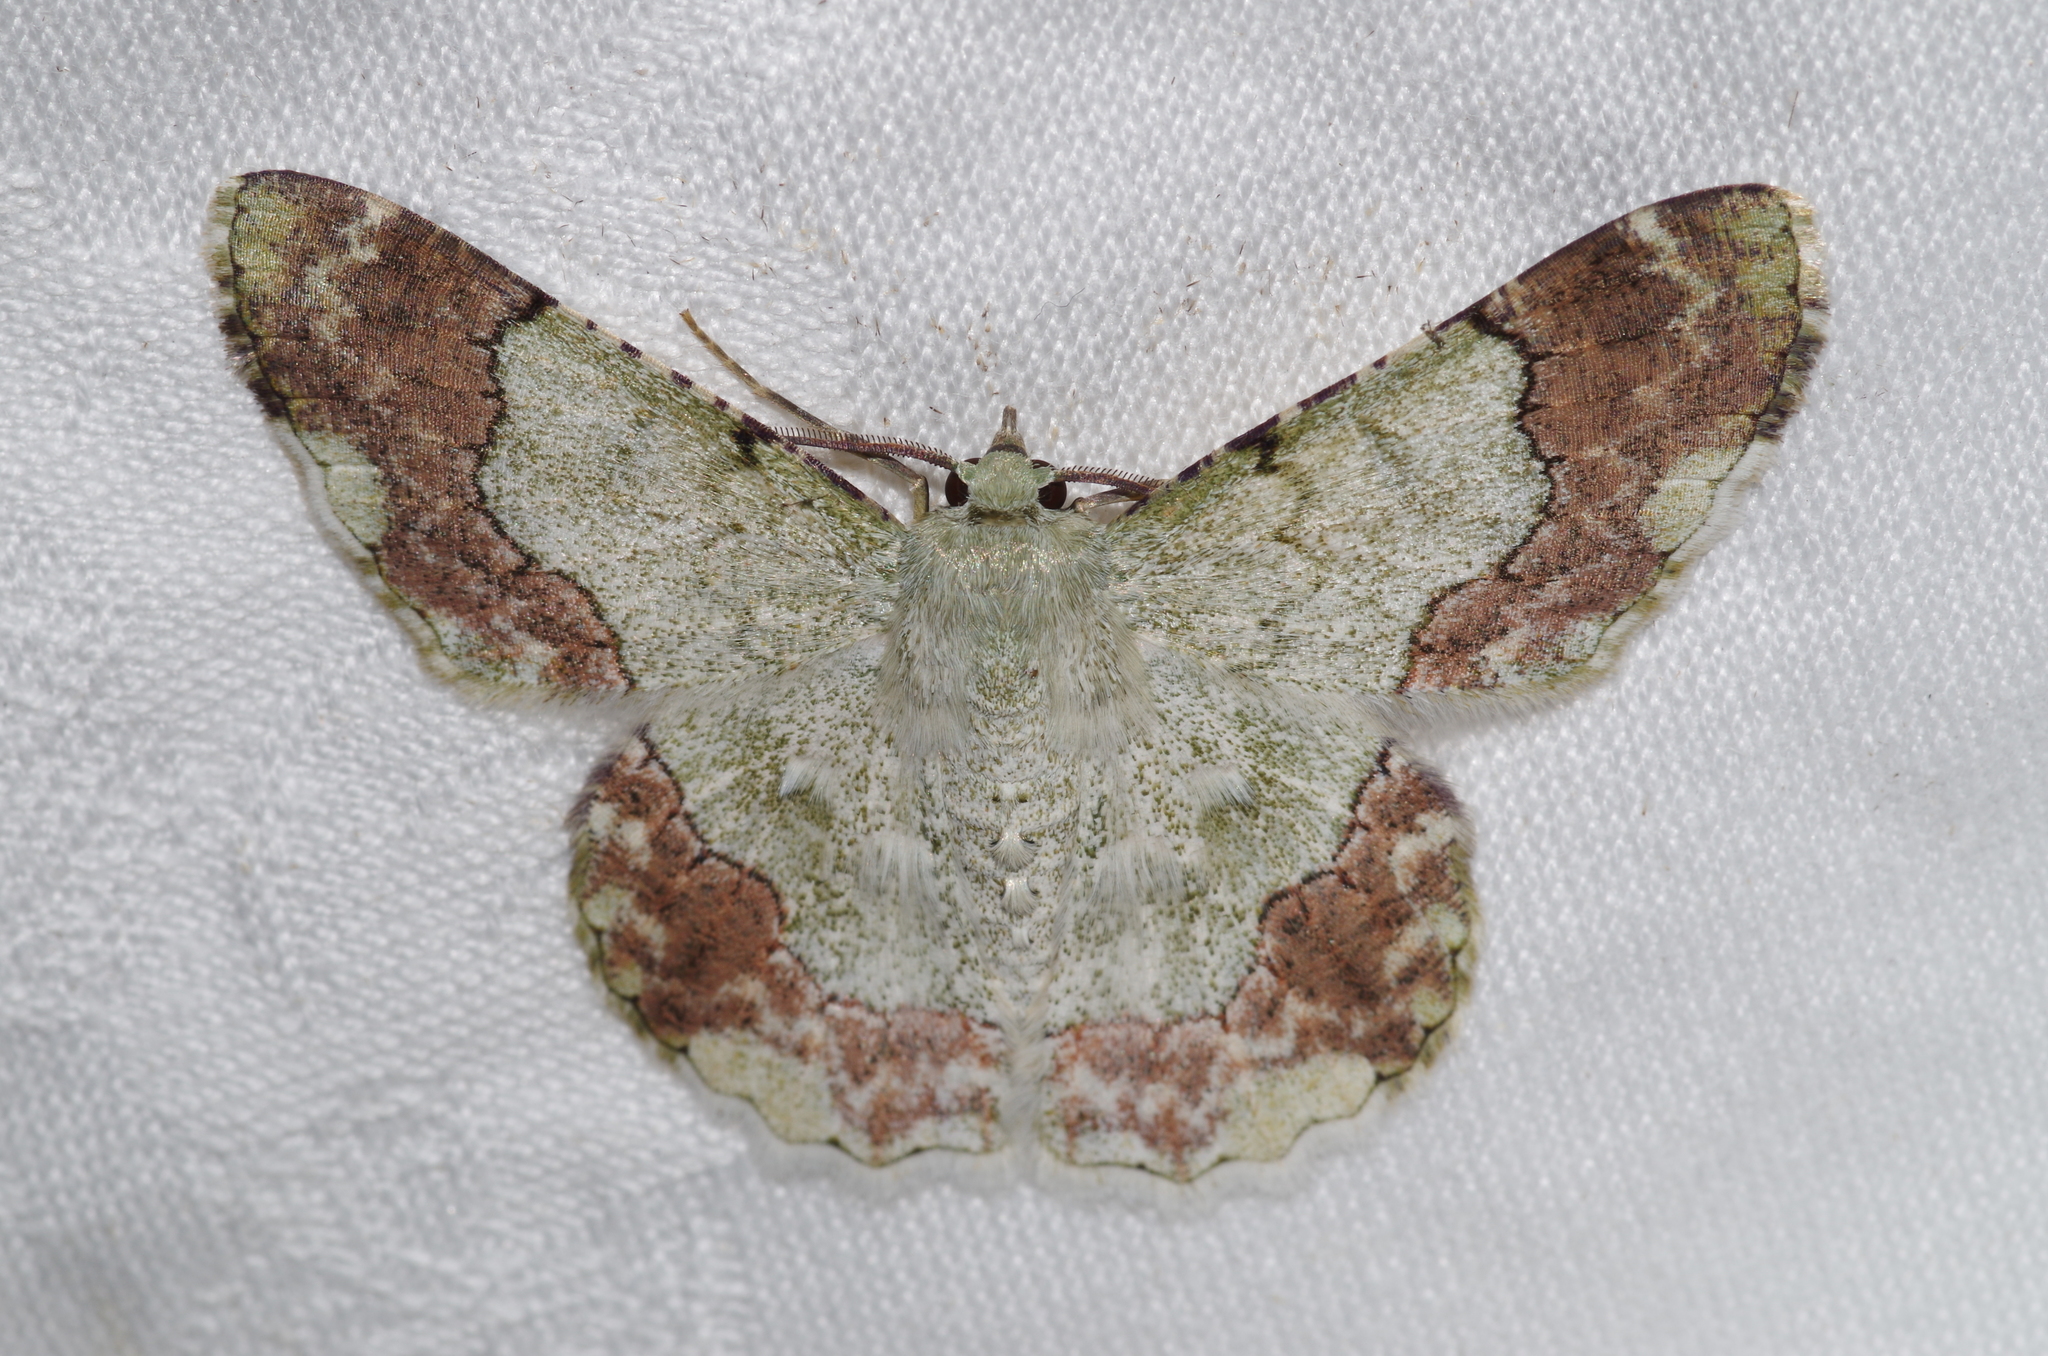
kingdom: Animalia
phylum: Arthropoda
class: Insecta
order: Lepidoptera
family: Geometridae
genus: Pingasa
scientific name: Pingasa ruginaria
